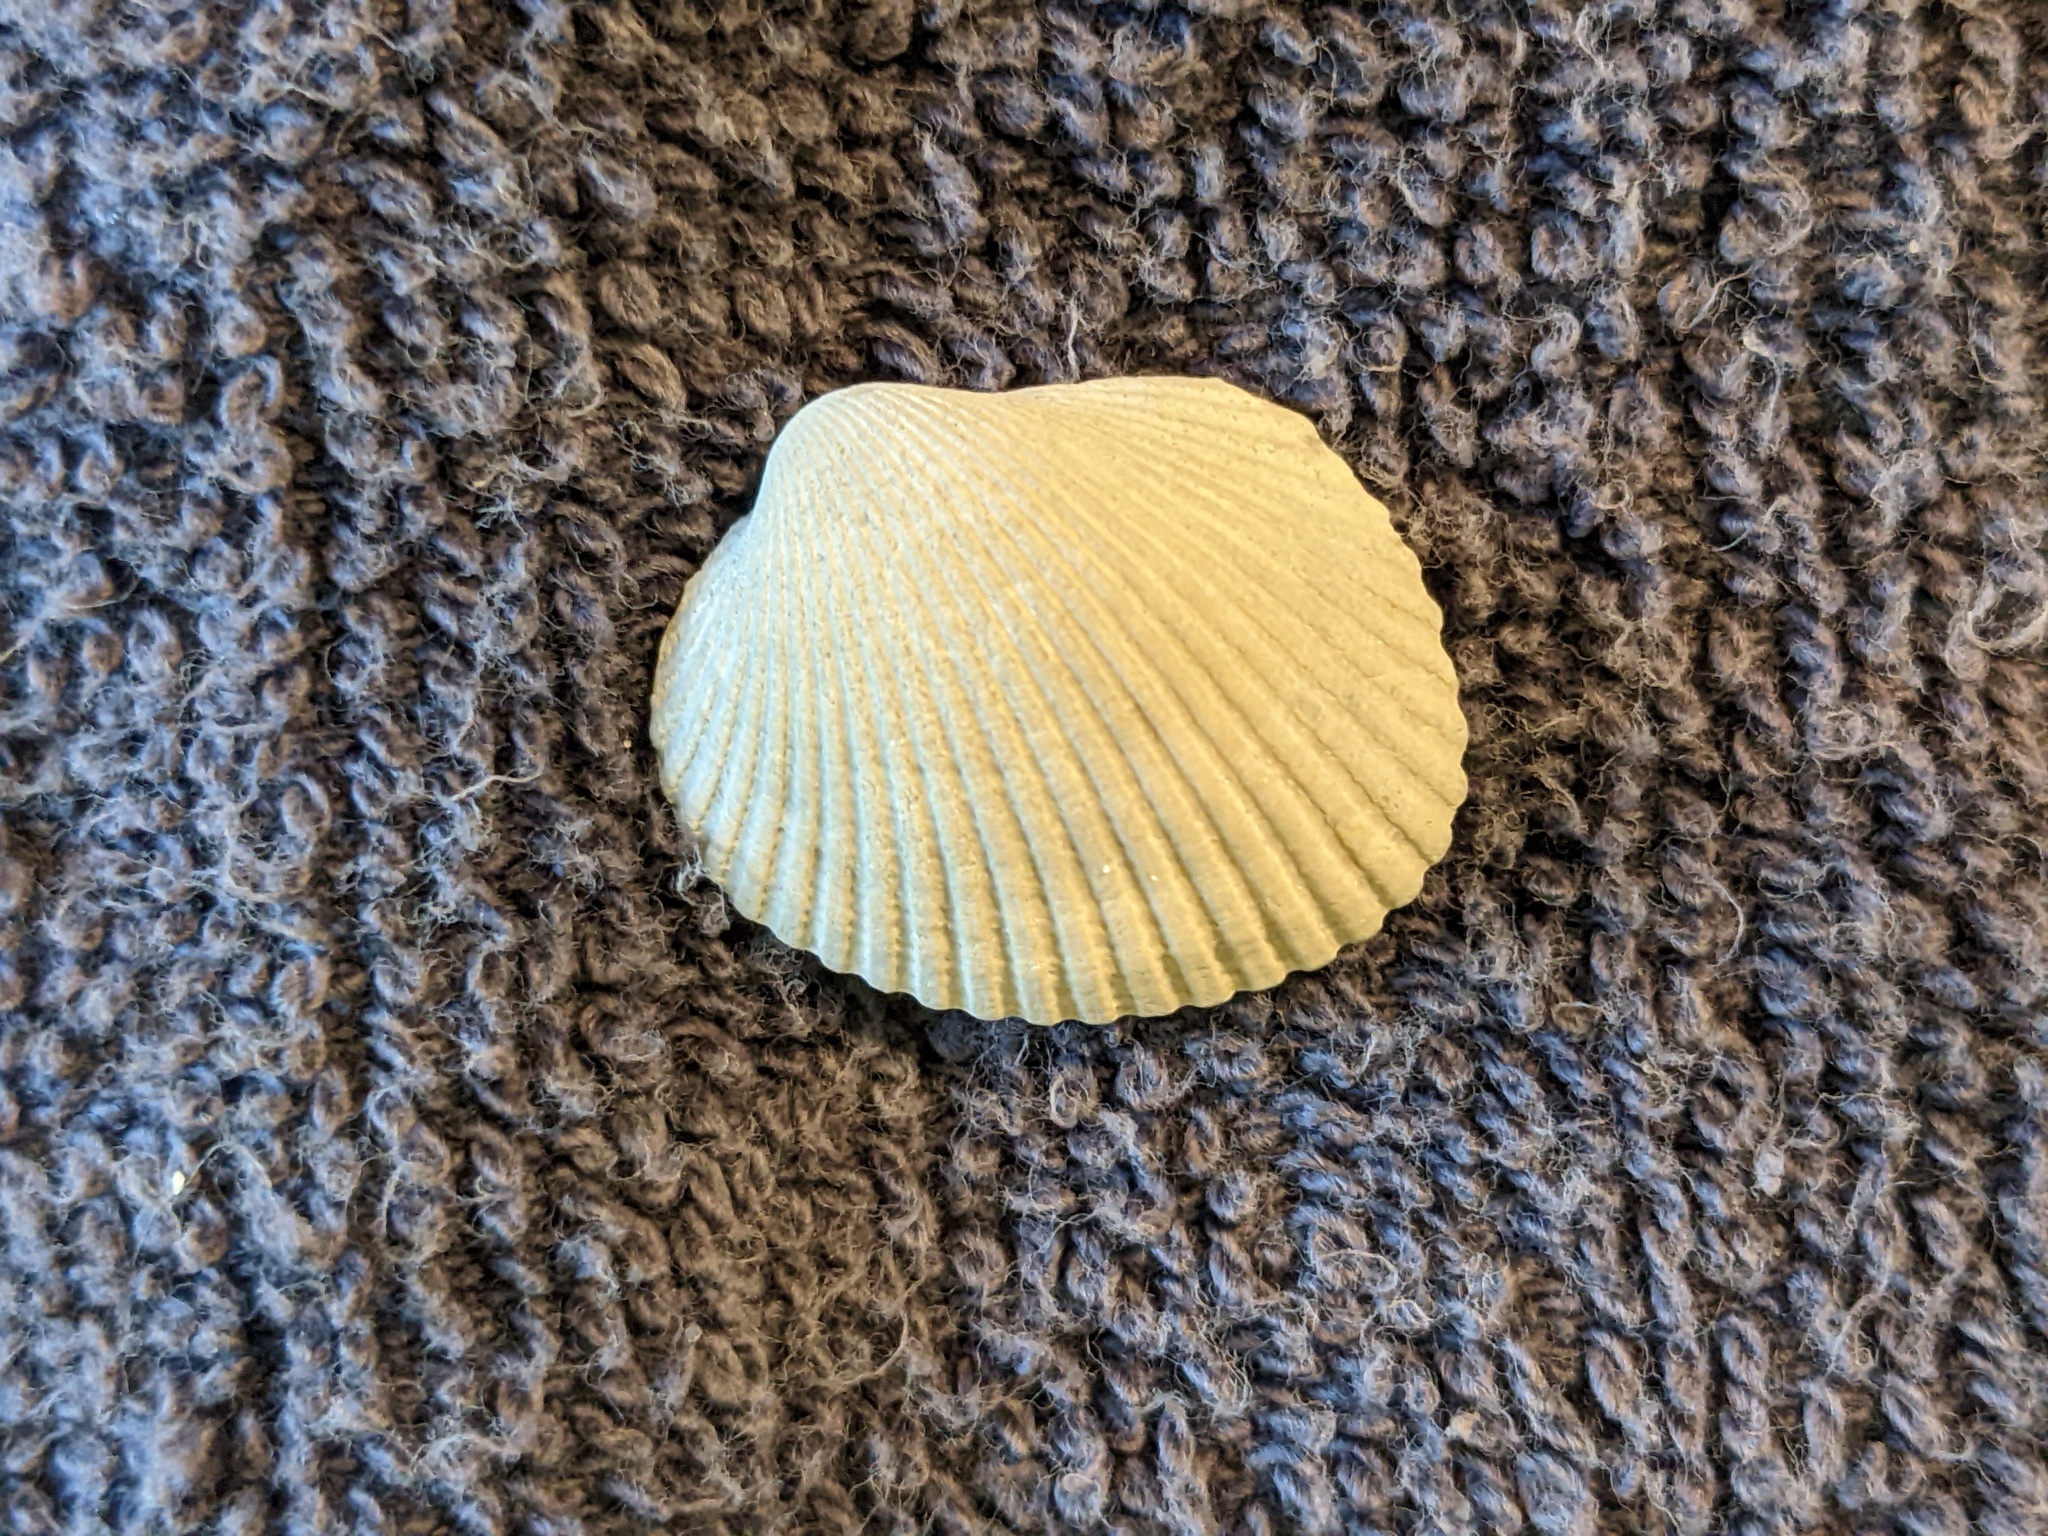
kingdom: Animalia
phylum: Mollusca
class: Bivalvia
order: Arcida
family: Arcidae
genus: Lunarca
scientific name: Lunarca ovalis
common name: Blood ark
